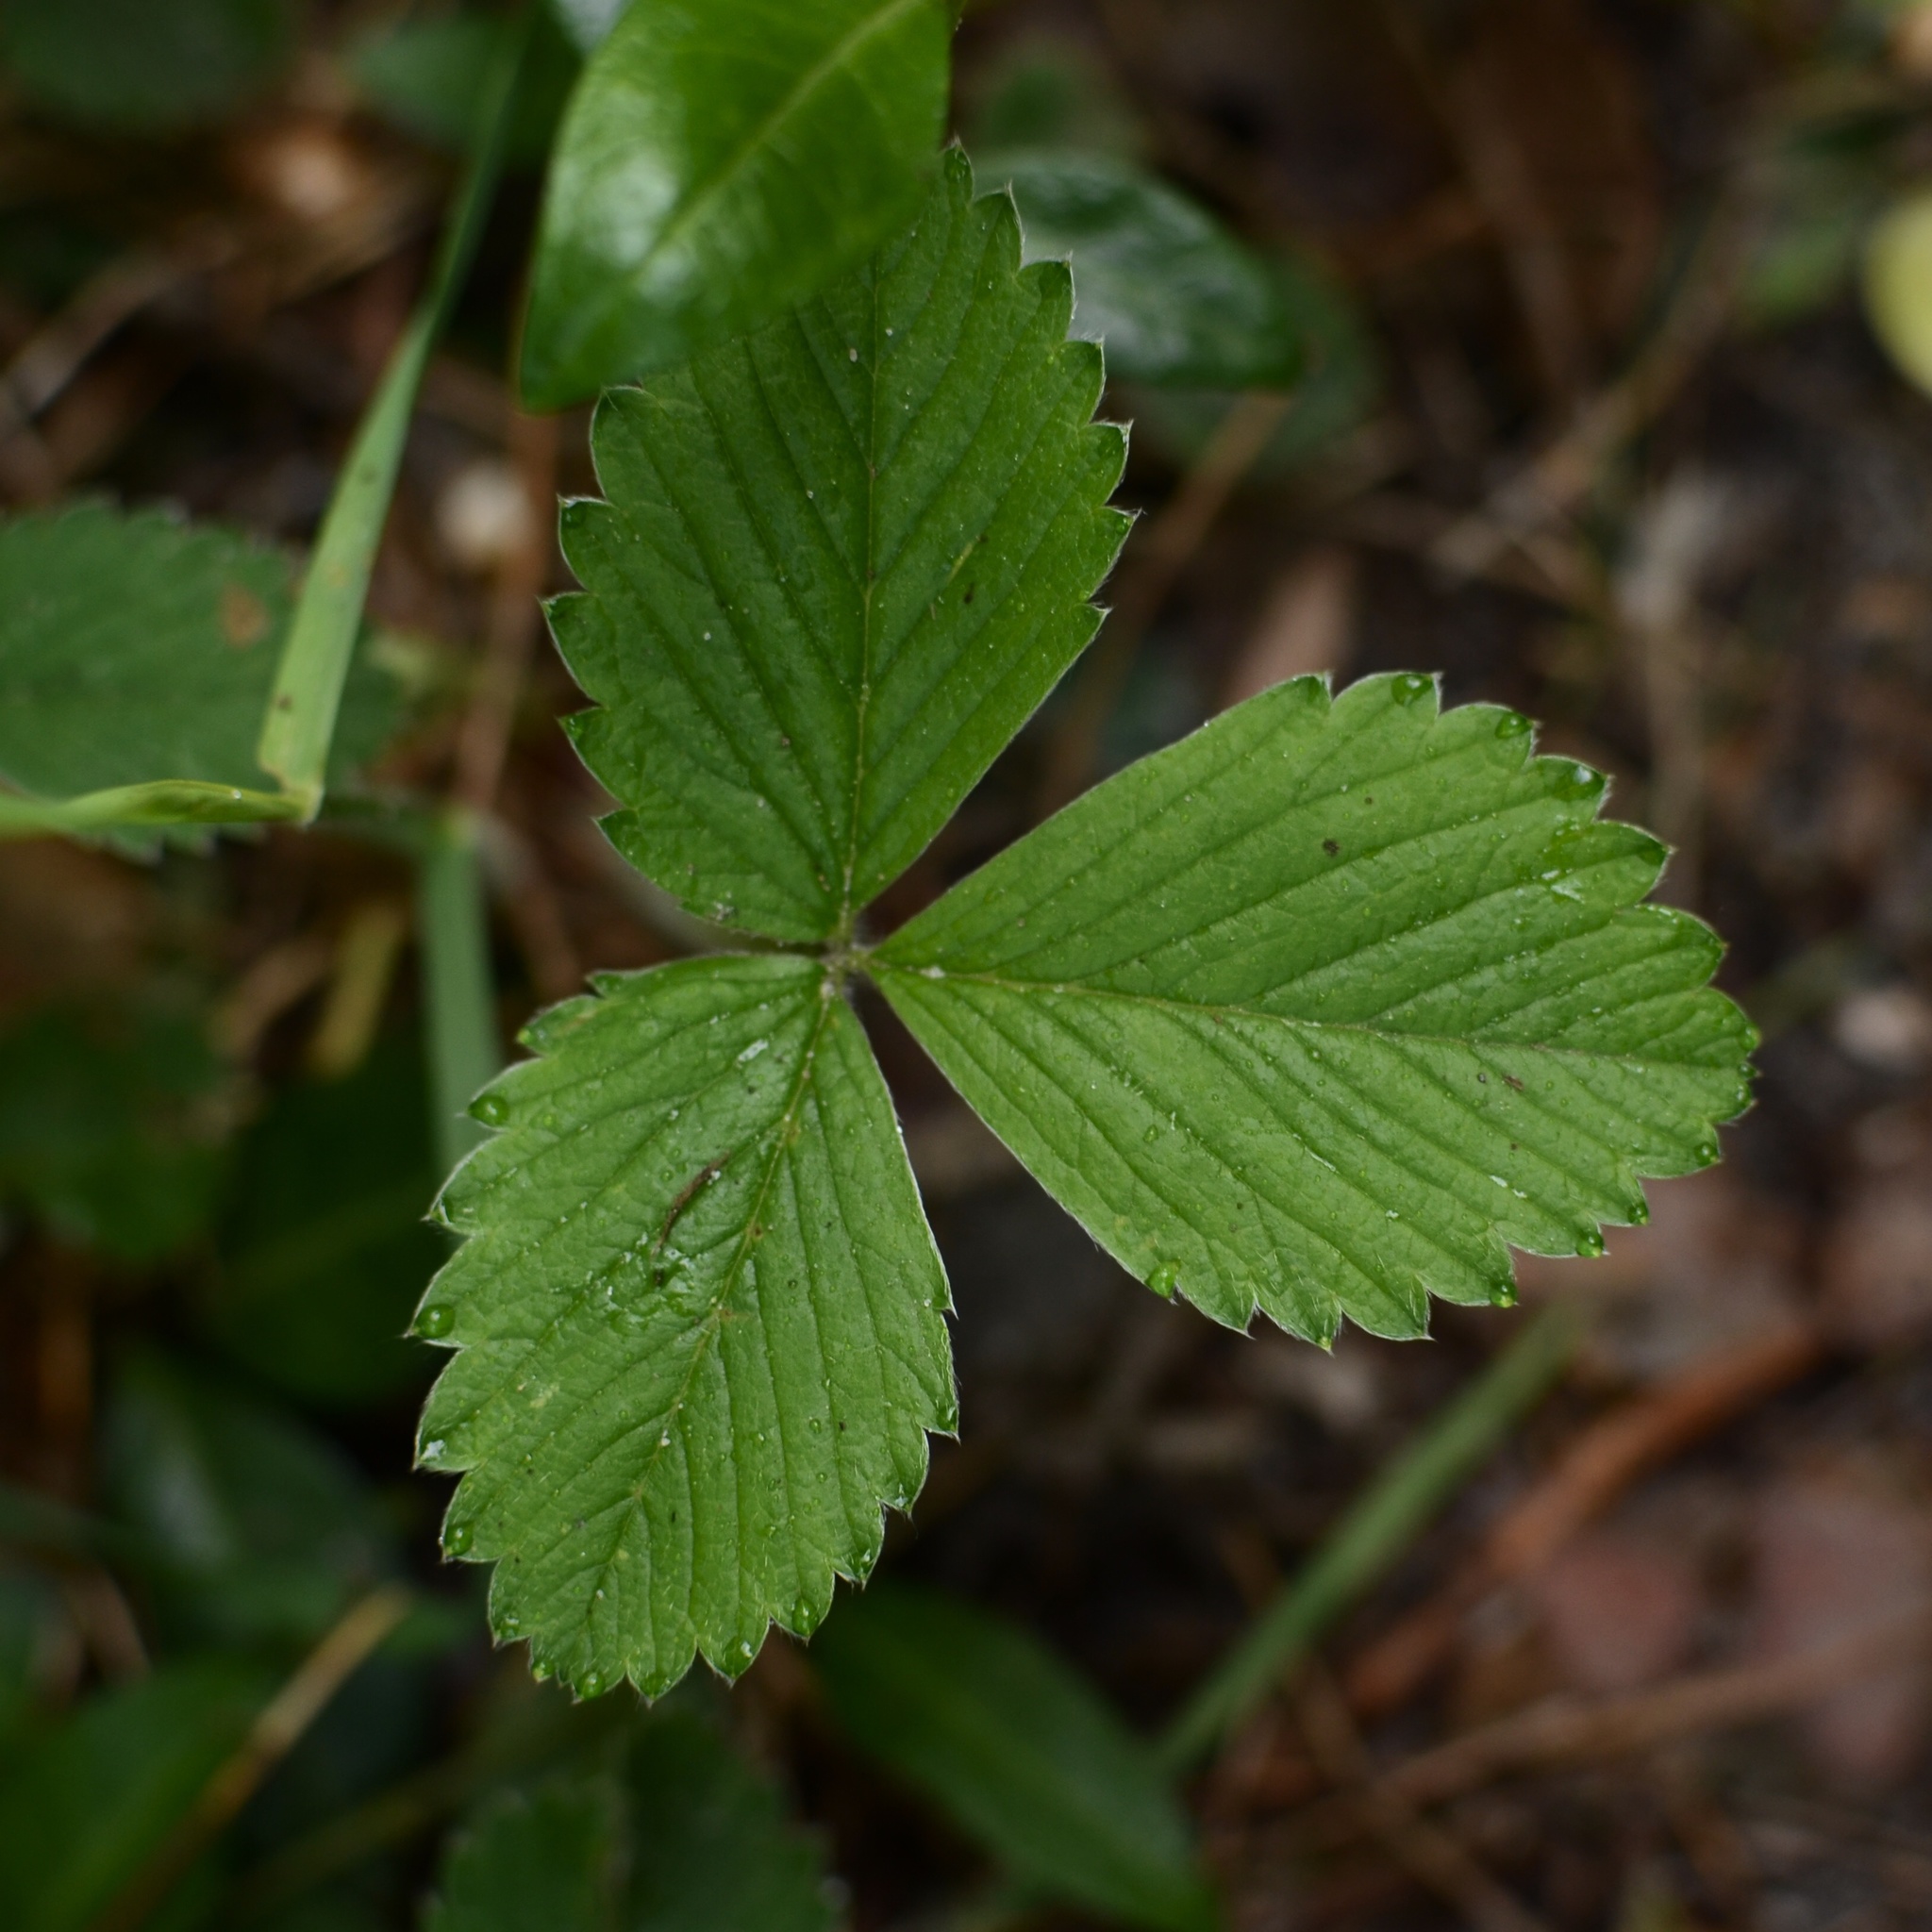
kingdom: Plantae
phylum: Tracheophyta
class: Magnoliopsida
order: Rosales
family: Rosaceae
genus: Fragaria
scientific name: Fragaria vesca
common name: Wild strawberry
